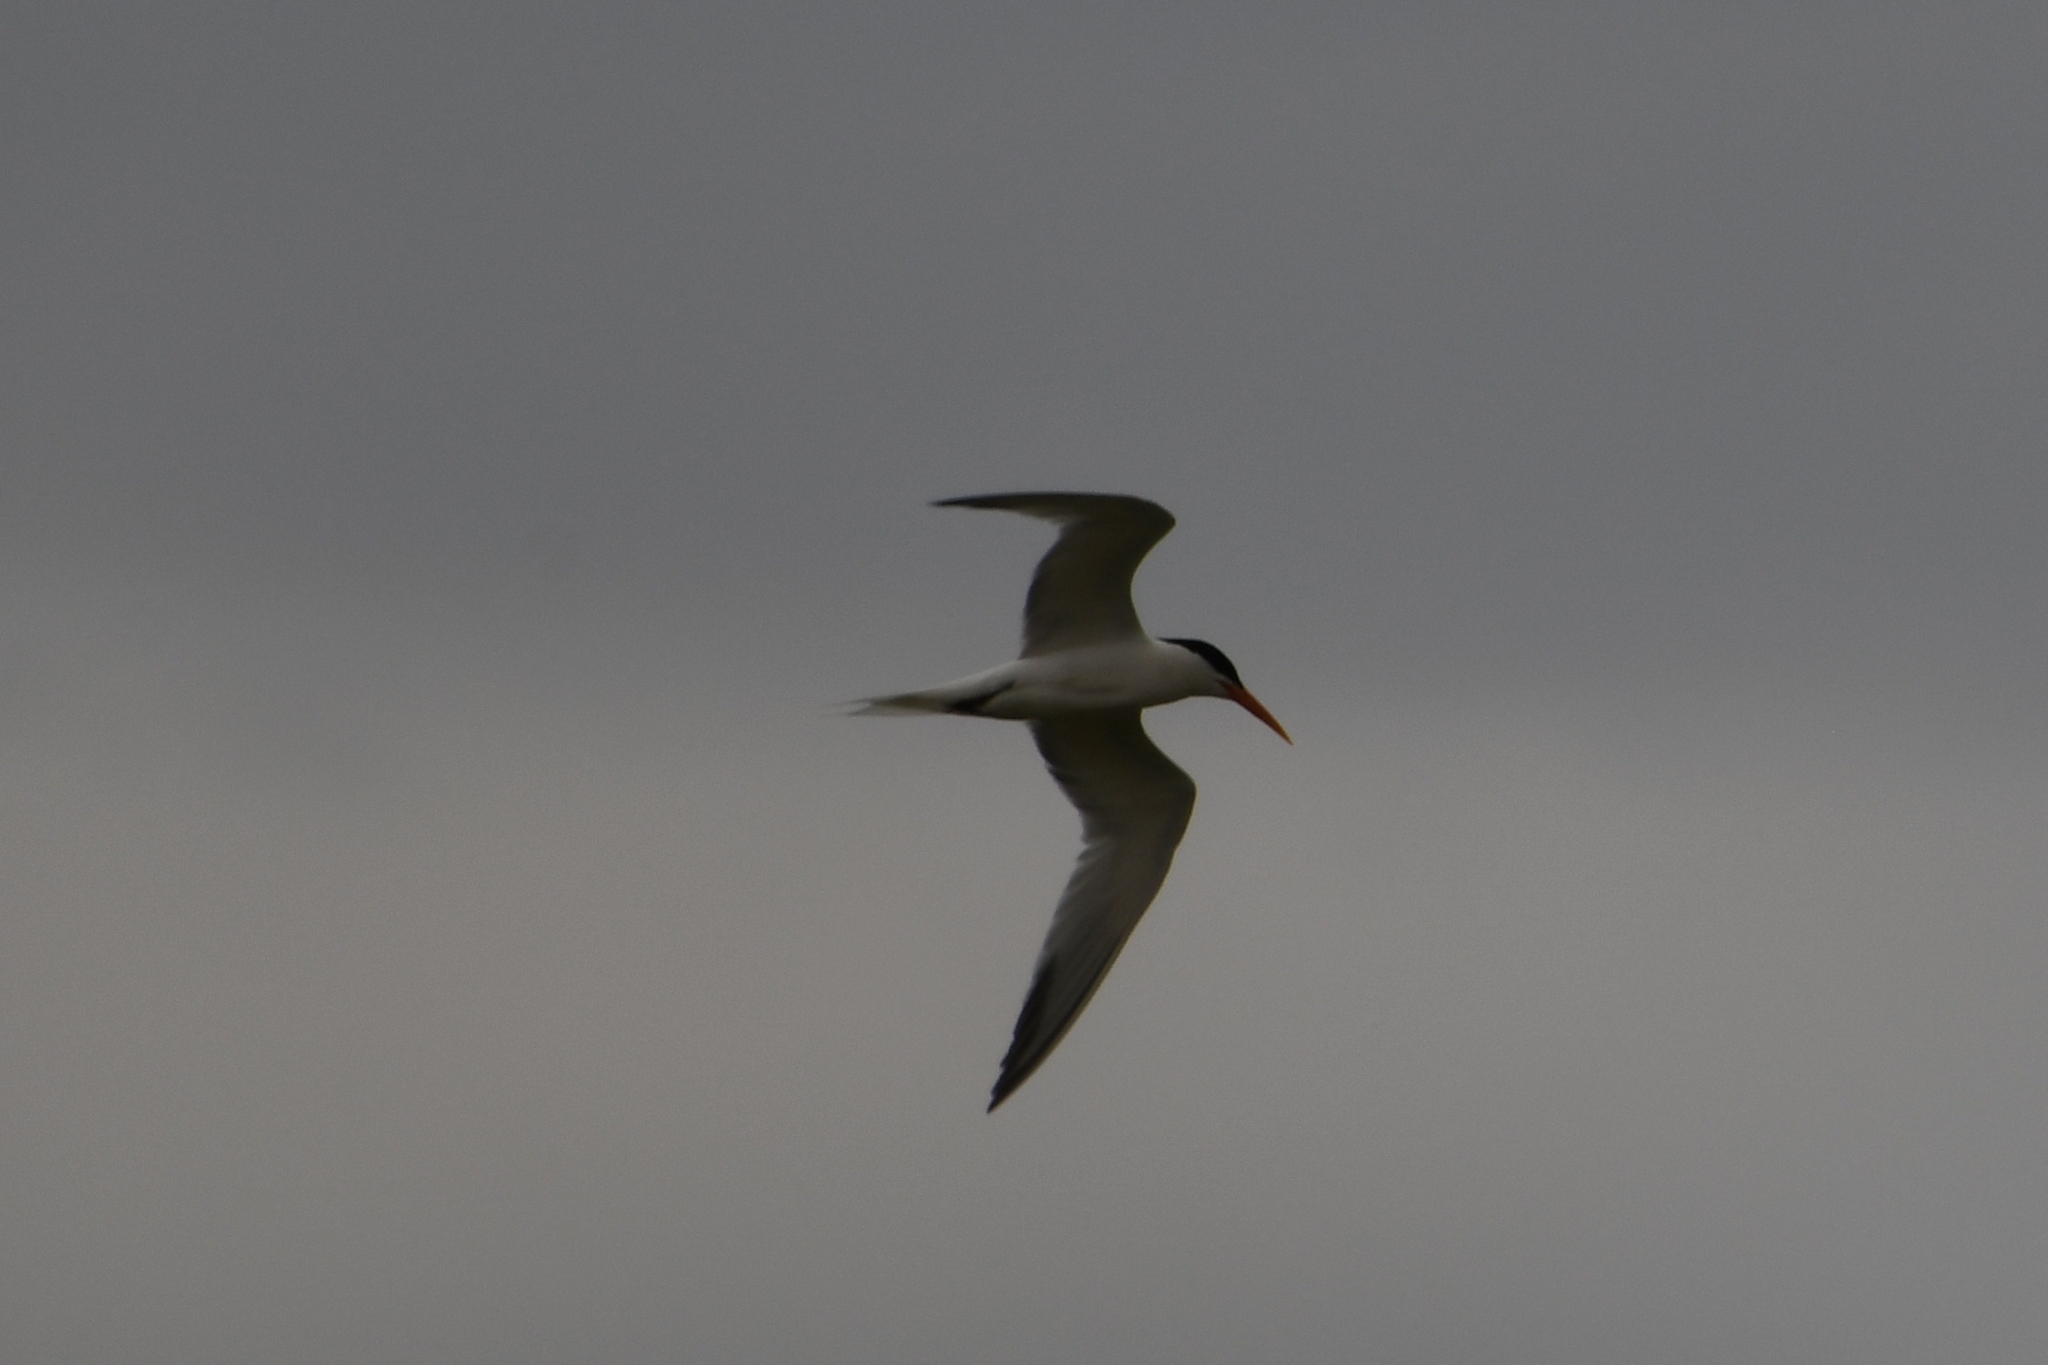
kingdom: Animalia
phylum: Chordata
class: Aves
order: Charadriiformes
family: Laridae
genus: Thalasseus
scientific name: Thalasseus elegans
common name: Elegant tern
